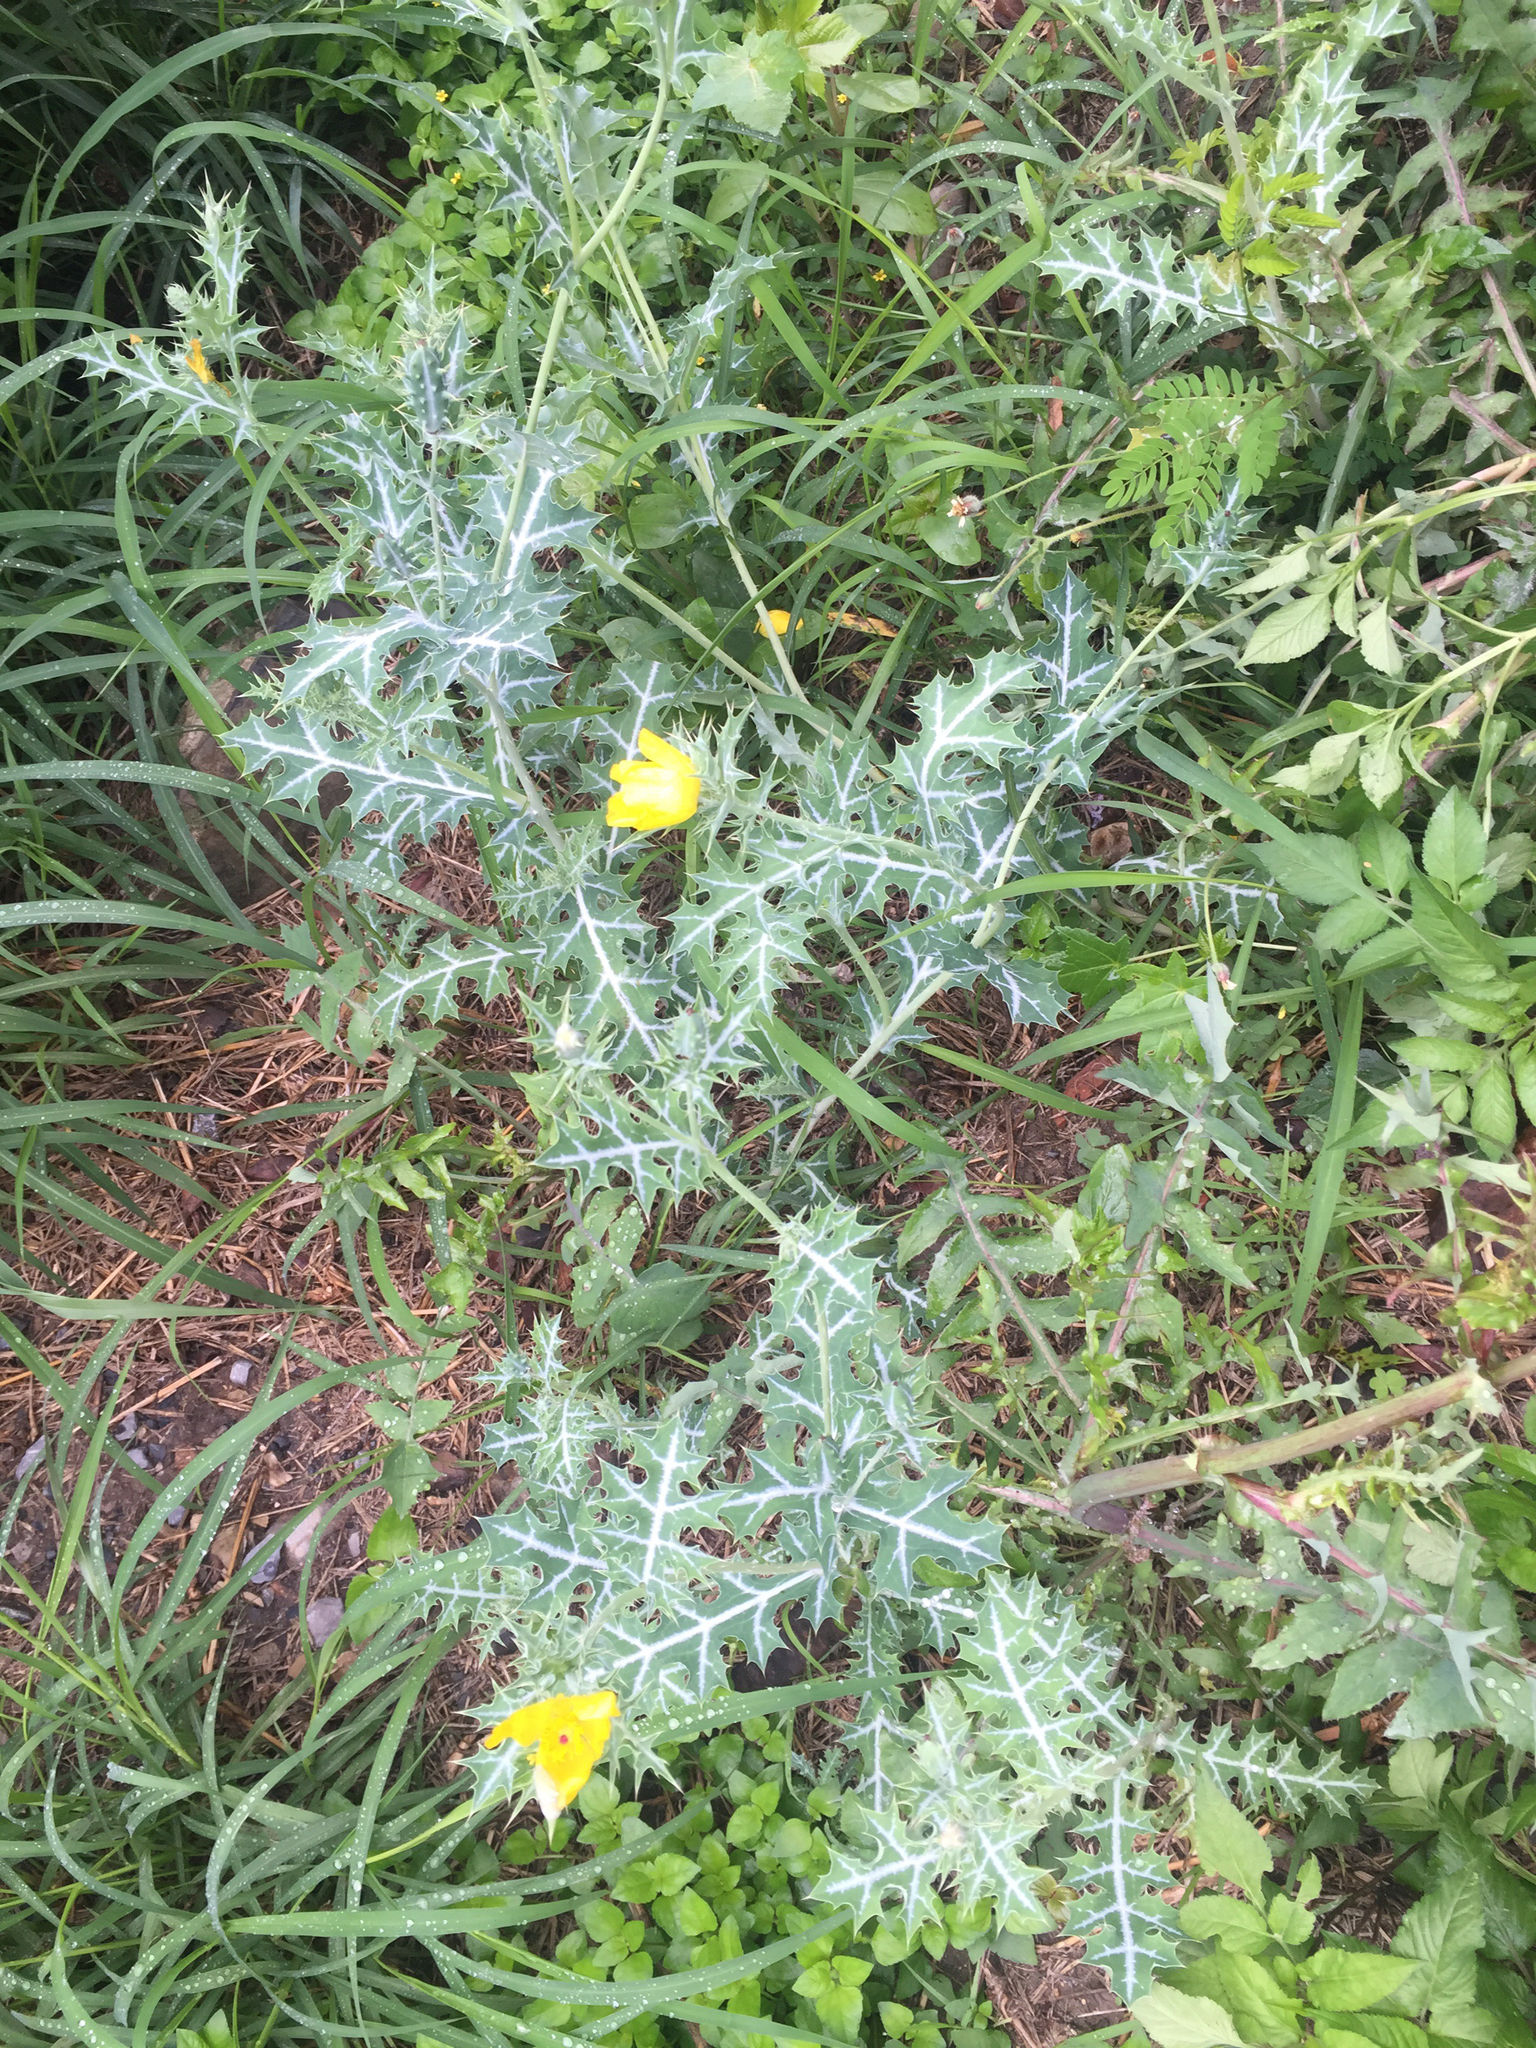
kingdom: Plantae
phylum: Tracheophyta
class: Magnoliopsida
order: Ranunculales
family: Papaveraceae
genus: Argemone
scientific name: Argemone mexicana
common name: Mexican poppy
